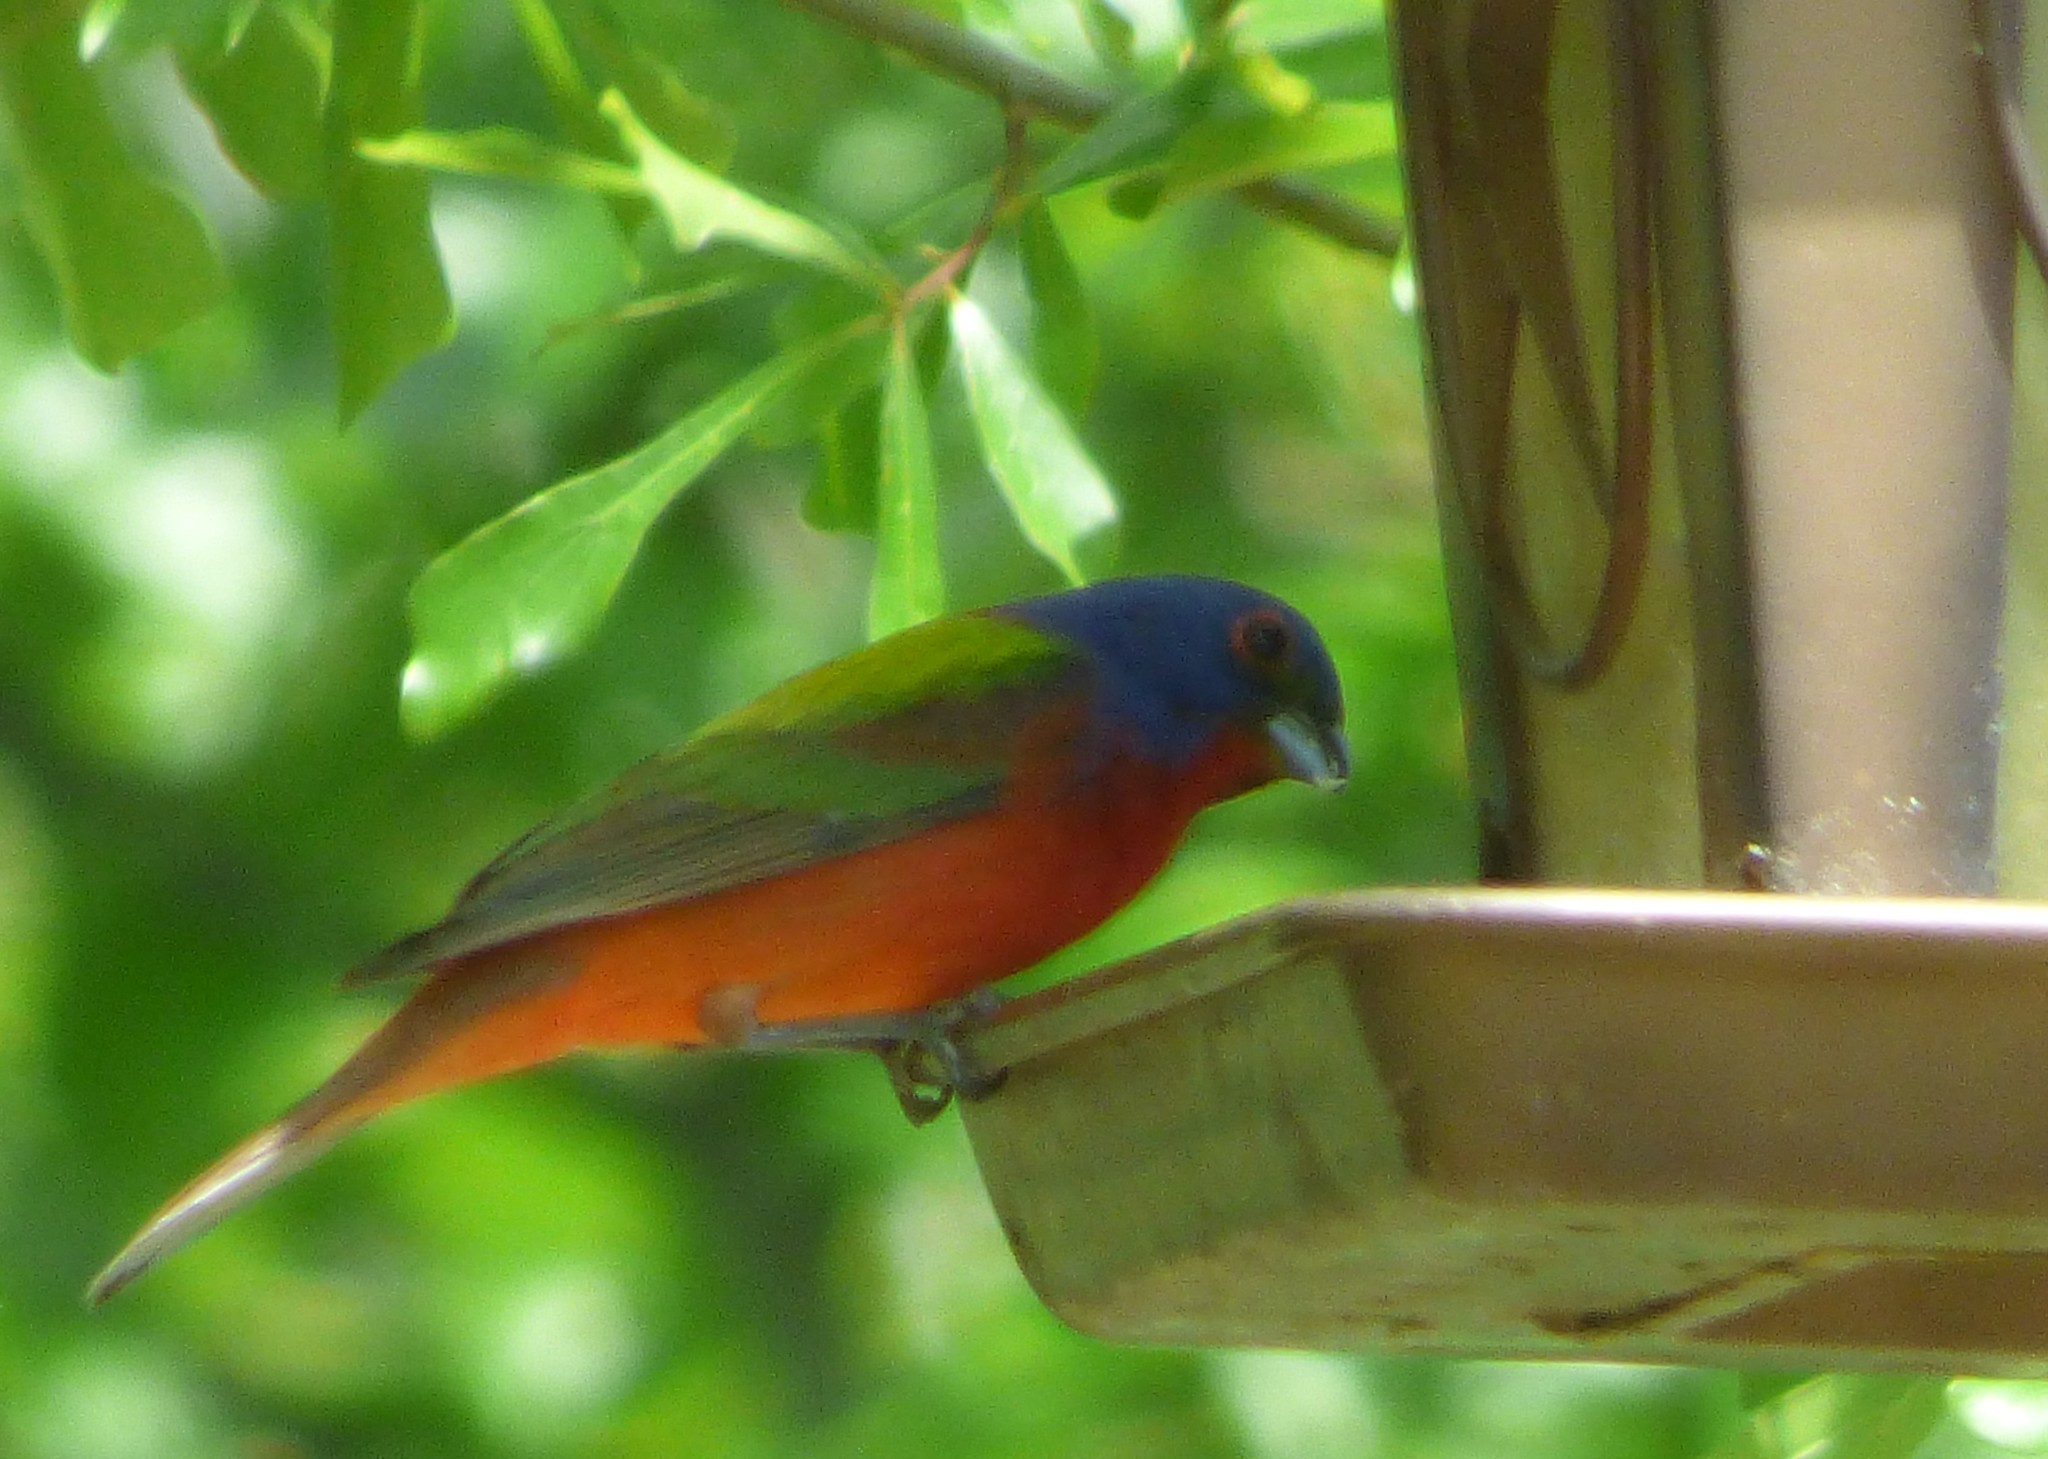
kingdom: Animalia
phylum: Chordata
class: Aves
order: Passeriformes
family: Cardinalidae
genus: Passerina
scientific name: Passerina ciris
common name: Painted bunting
